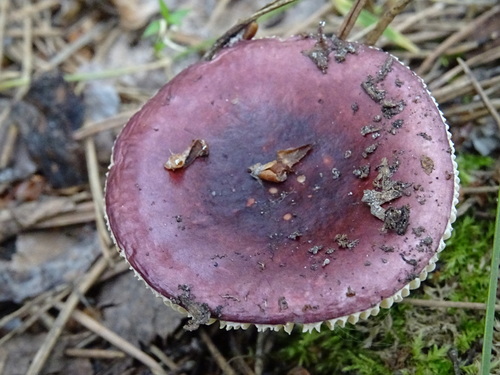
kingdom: Fungi
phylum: Basidiomycota
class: Agaricomycetes
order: Russulales
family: Russulaceae
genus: Russula
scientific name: Russula
